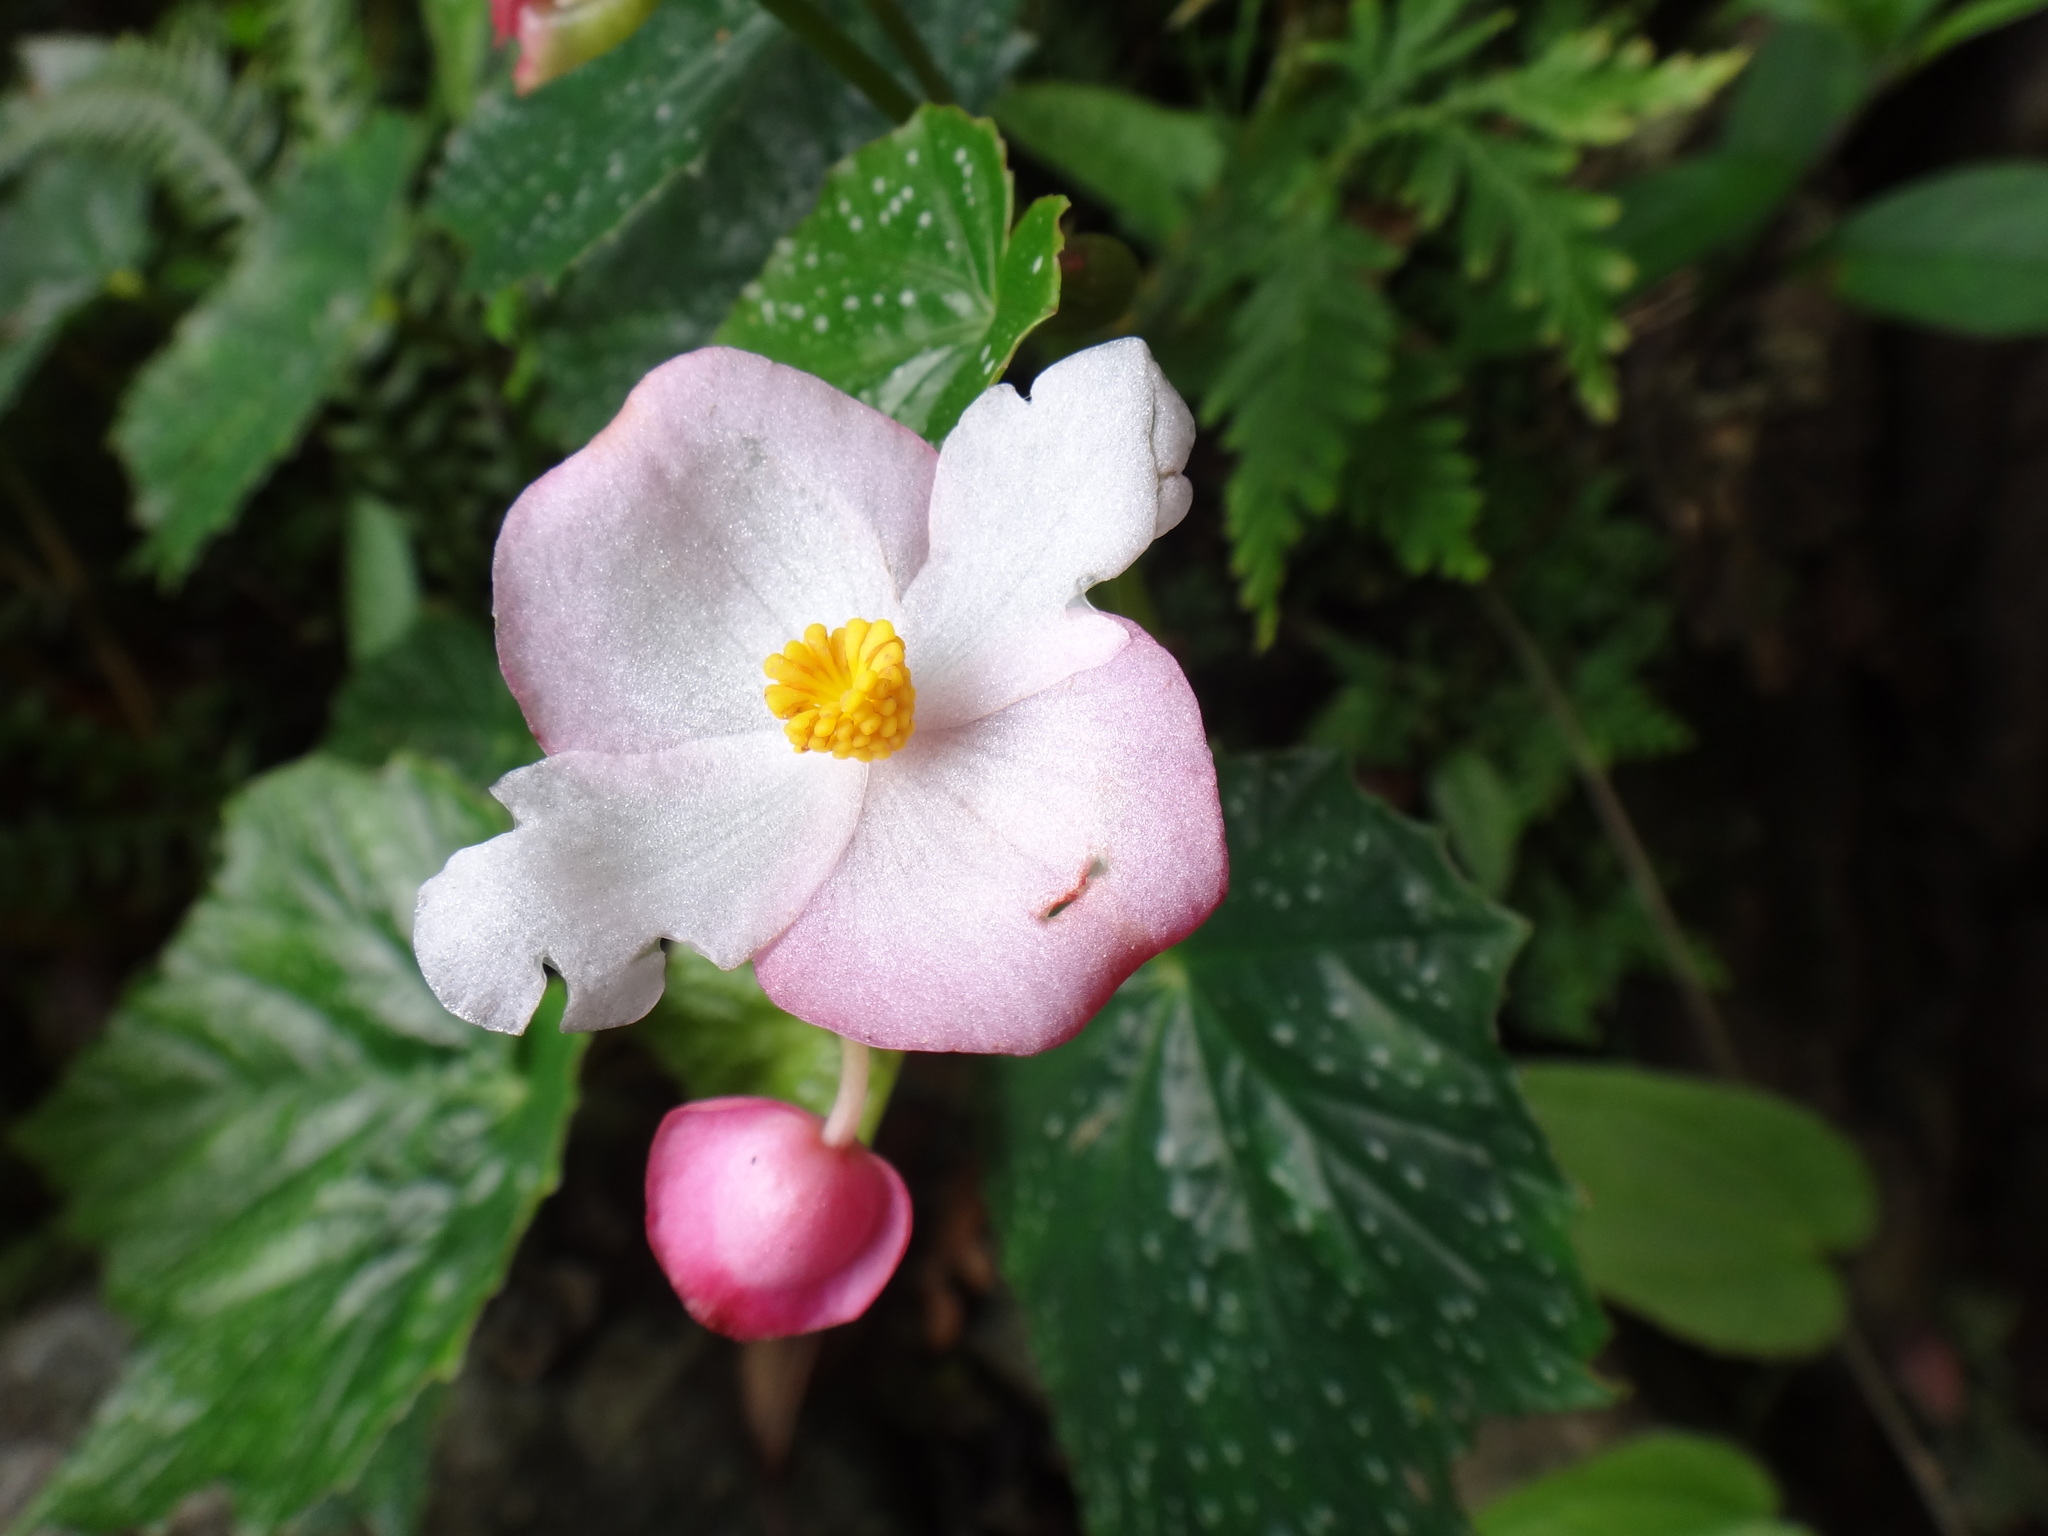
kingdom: Plantae
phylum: Tracheophyta
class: Magnoliopsida
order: Cucurbitales
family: Begoniaceae
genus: Begonia
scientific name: Begonia formosana
